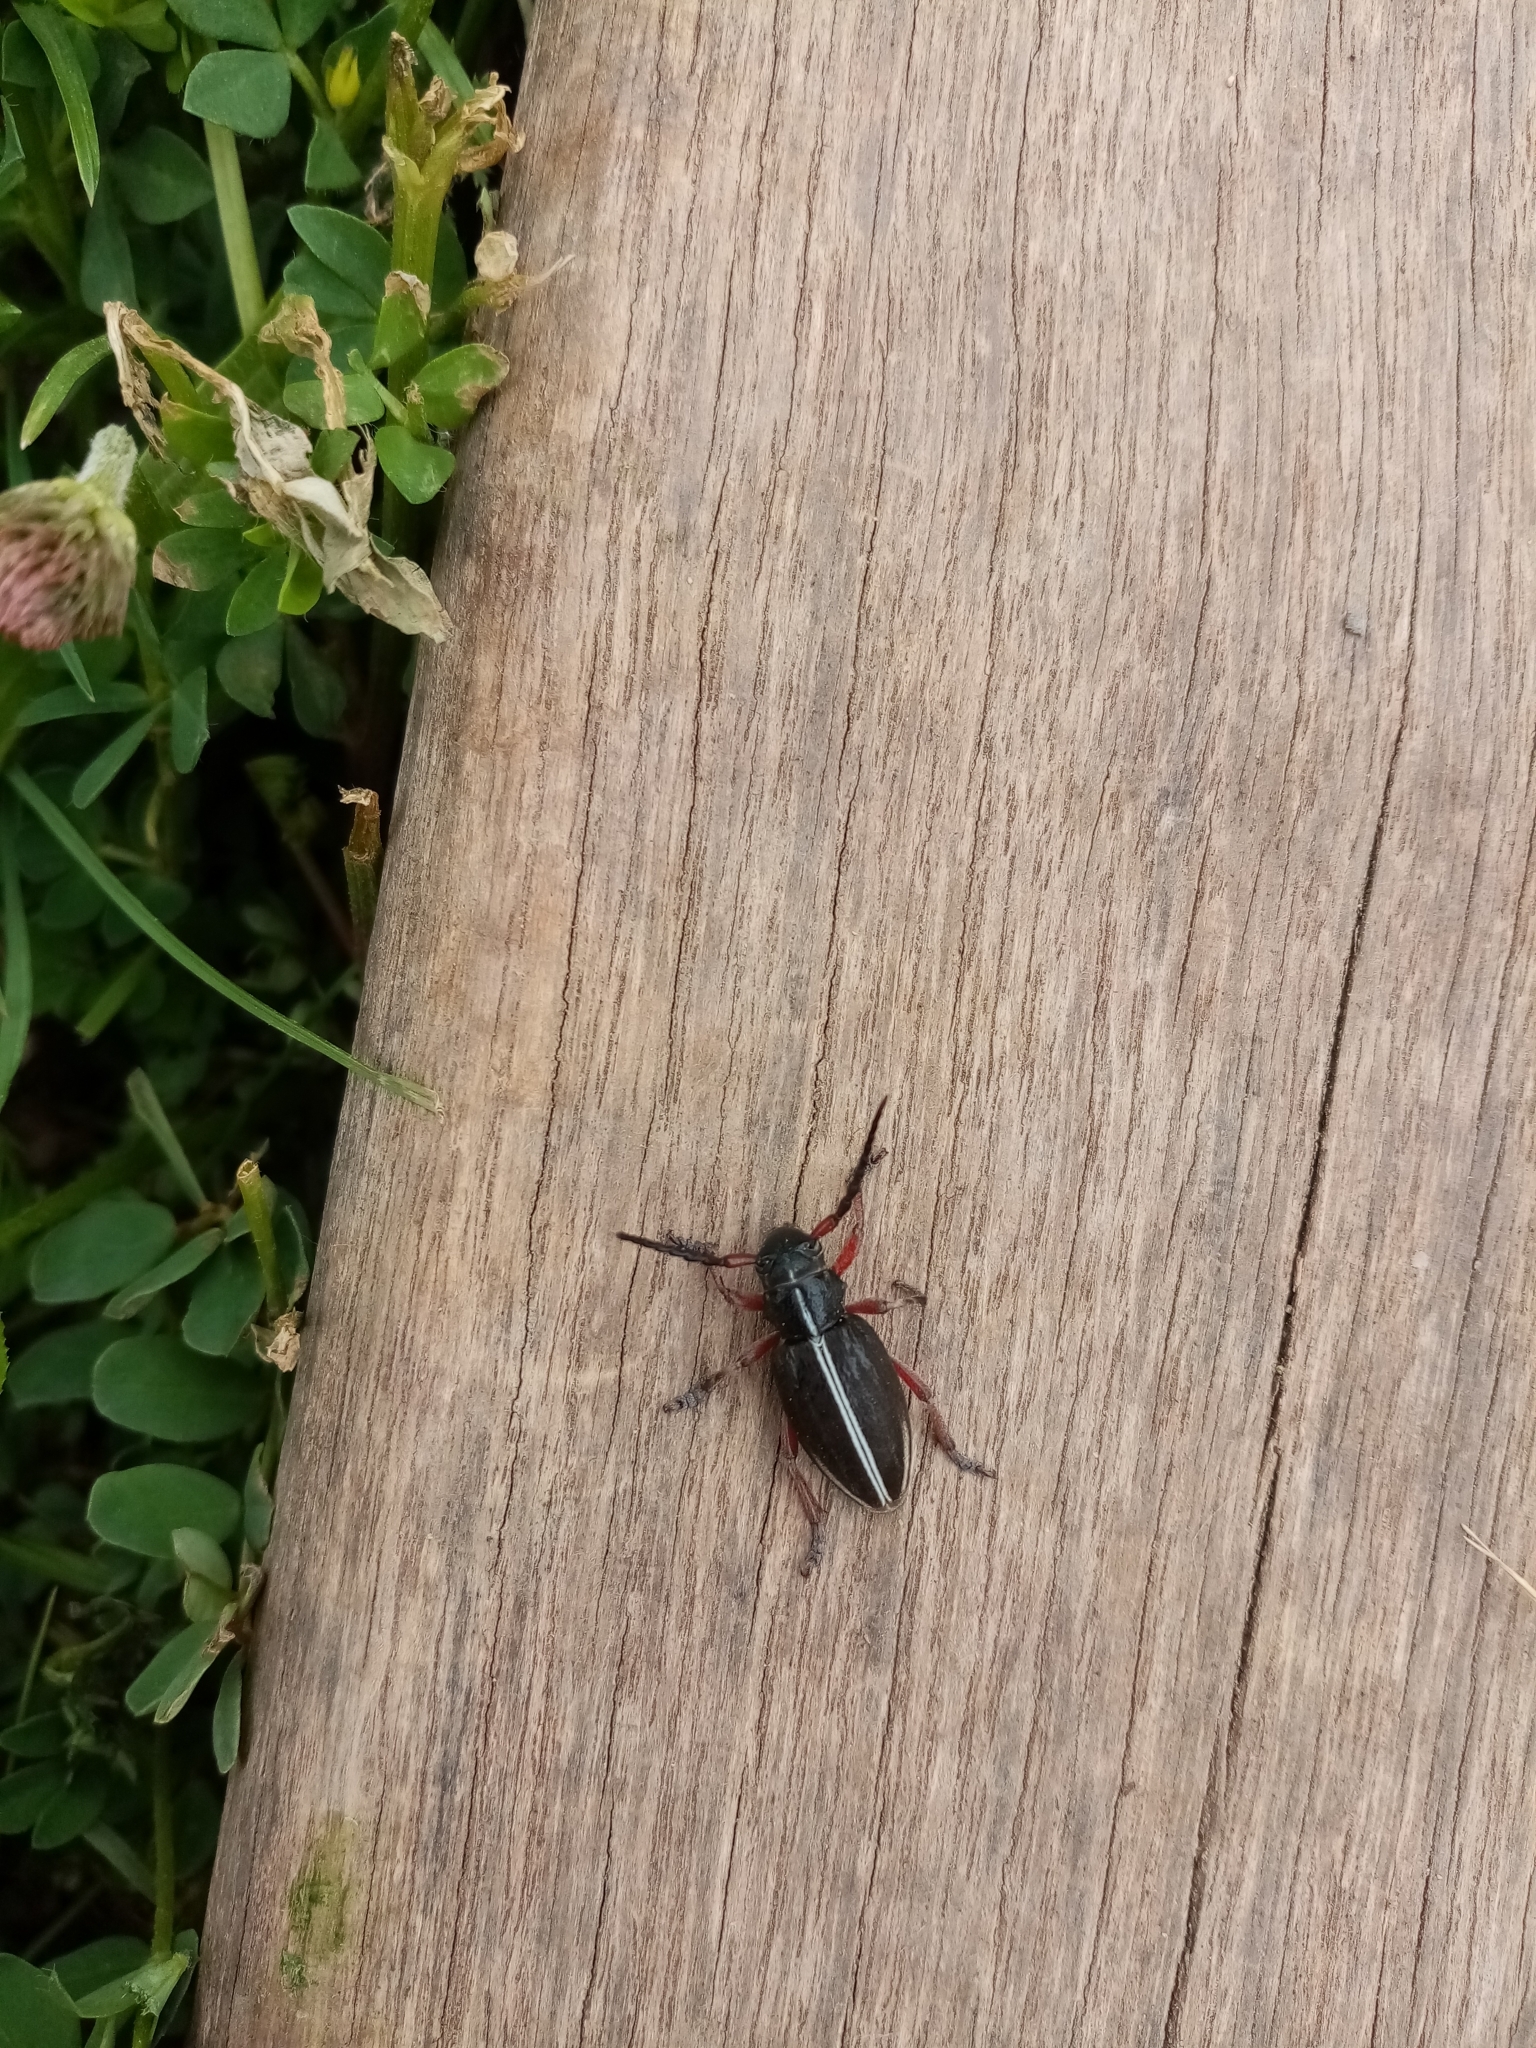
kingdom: Animalia
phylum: Arthropoda
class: Insecta
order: Coleoptera
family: Cerambycidae
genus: Dorcadion
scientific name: Dorcadion pedestre
